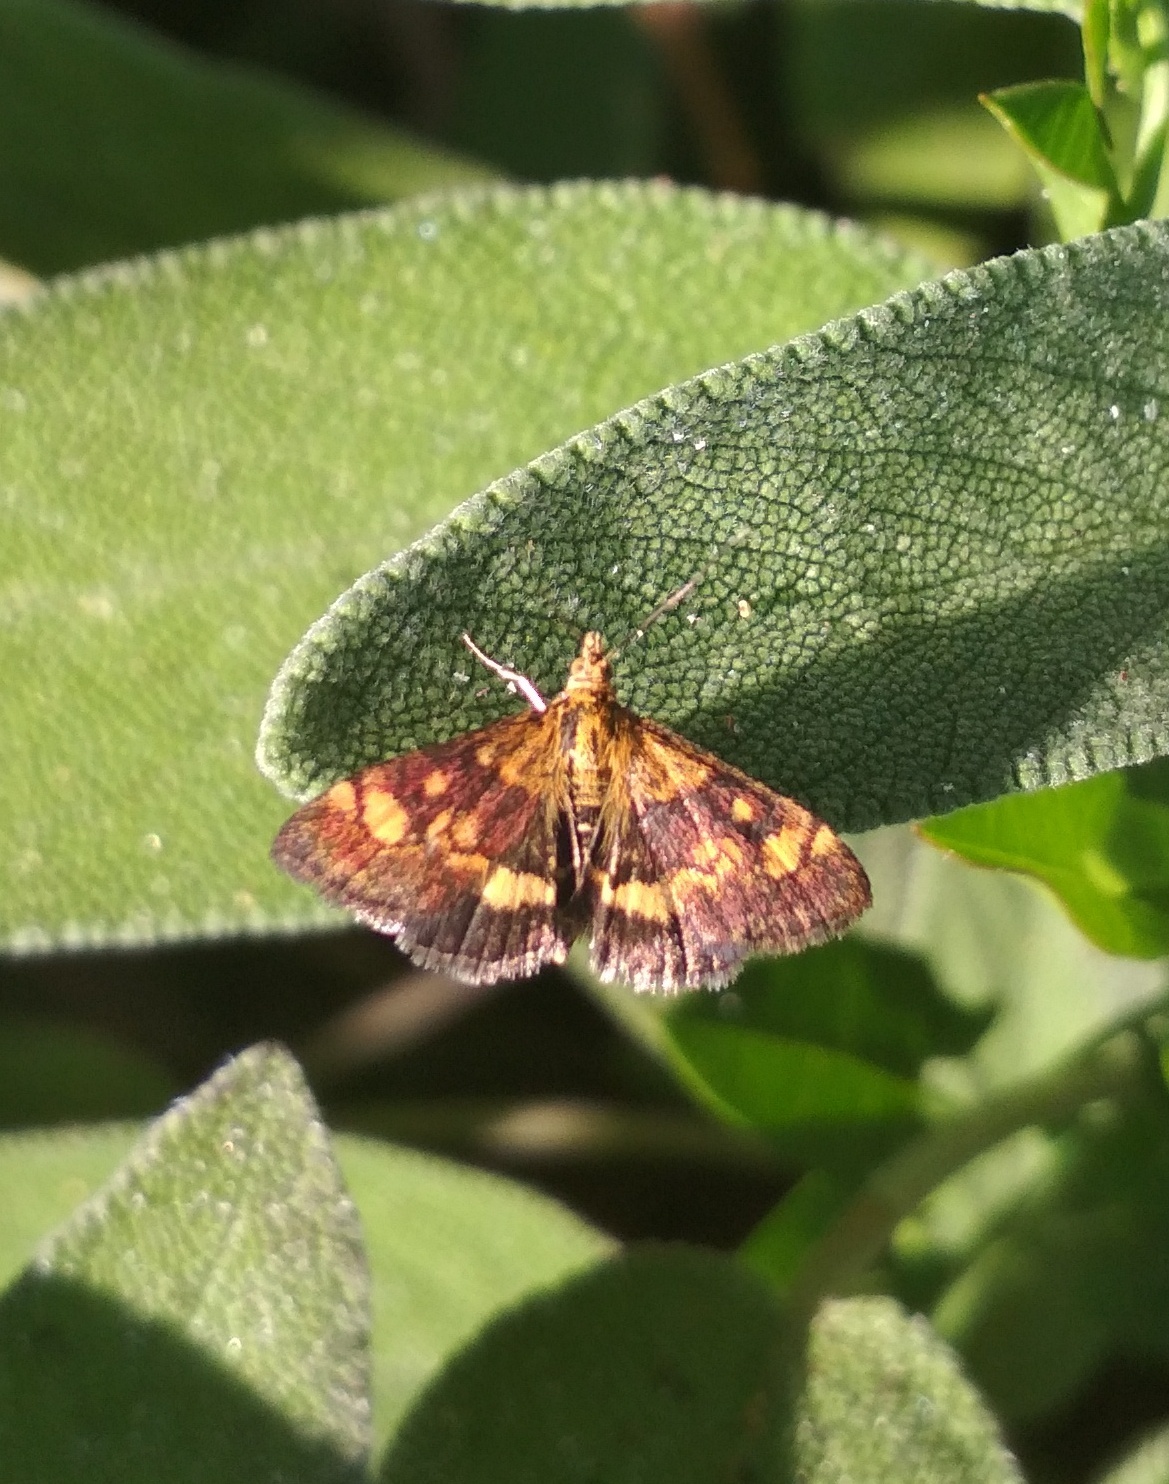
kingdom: Animalia
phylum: Arthropoda
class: Insecta
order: Lepidoptera
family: Crambidae
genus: Pyrausta
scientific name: Pyrausta aurata
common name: Small purple & gold
